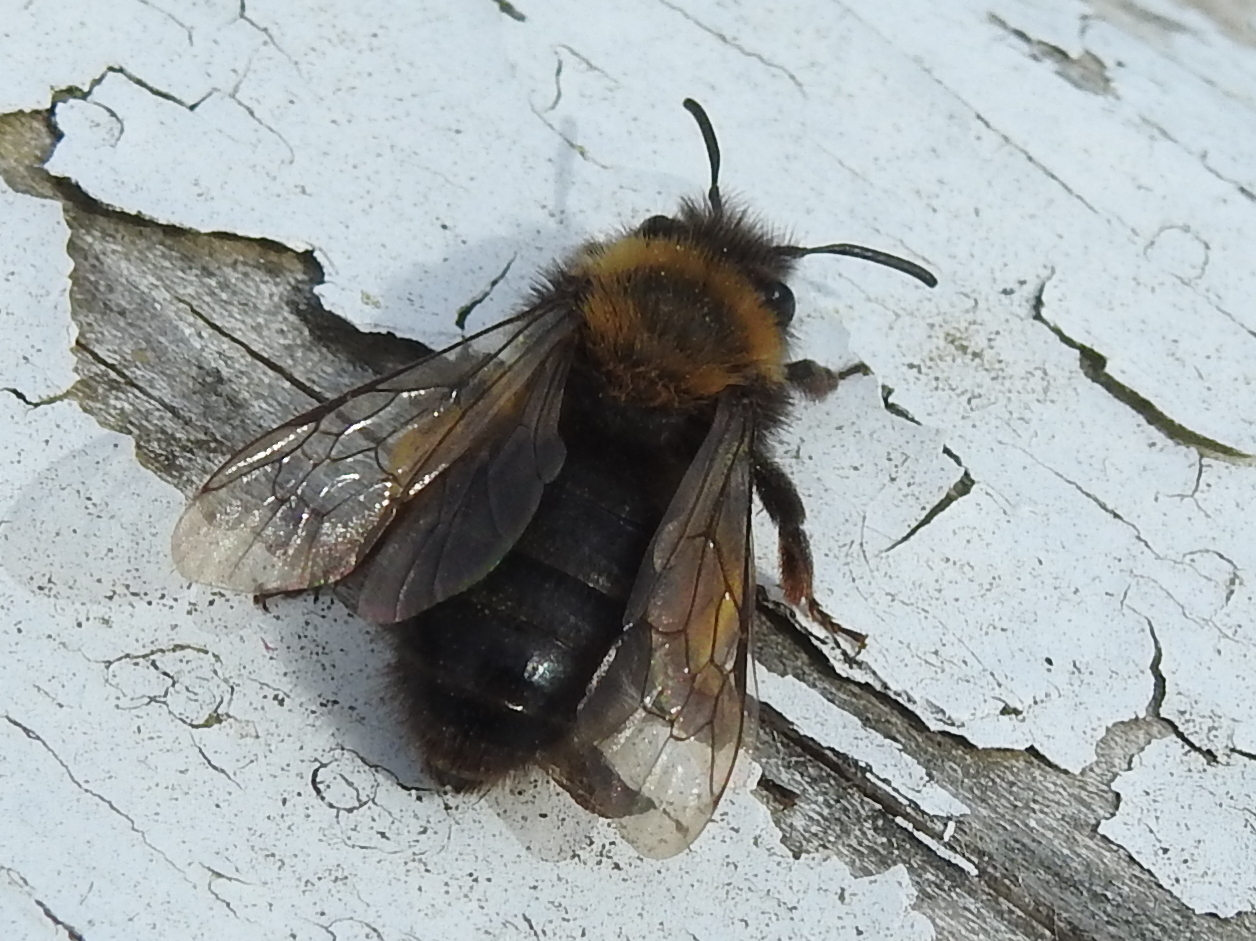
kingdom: Animalia
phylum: Arthropoda
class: Insecta
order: Hymenoptera
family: Andrenidae
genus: Andrena
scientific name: Andrena clarkella
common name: Clarke's mining bee
